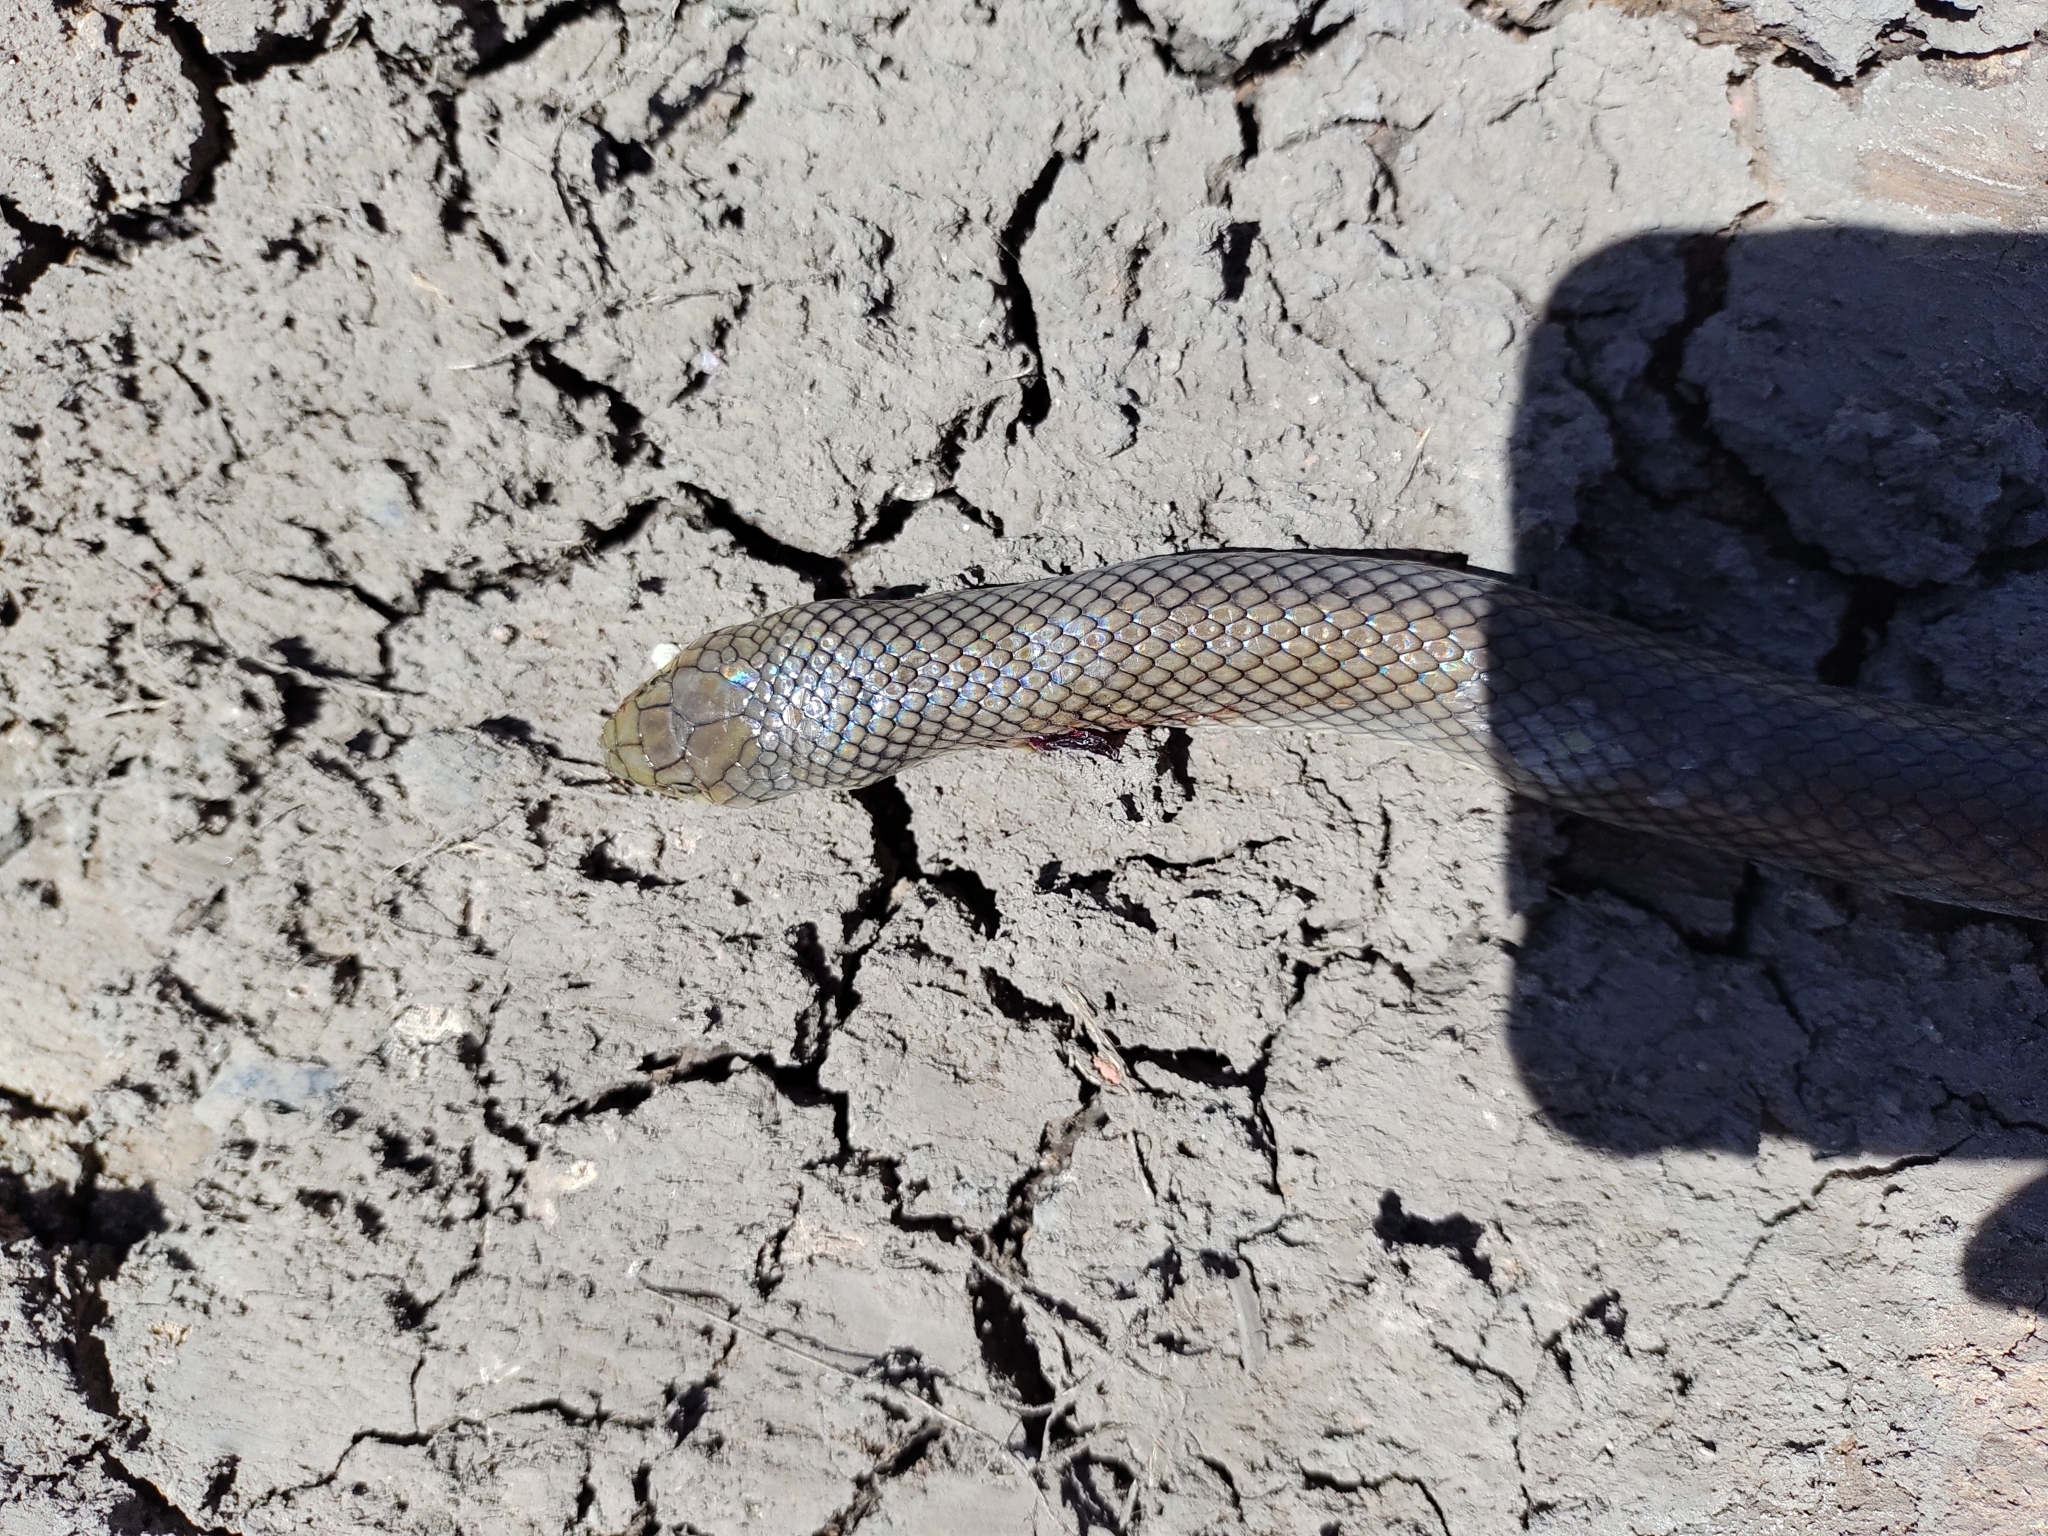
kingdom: Animalia
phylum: Chordata
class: Squamata
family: Colubridae
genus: Erythrolamprus
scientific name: Erythrolamprus semiaureus
